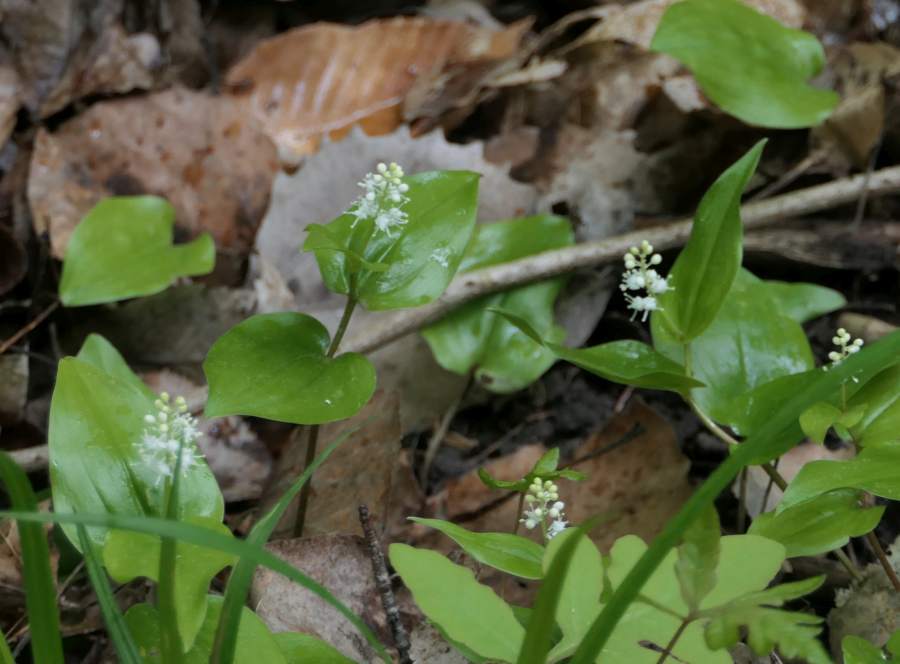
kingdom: Plantae
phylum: Tracheophyta
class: Liliopsida
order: Asparagales
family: Asparagaceae
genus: Maianthemum
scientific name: Maianthemum canadense
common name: False lily-of-the-valley
